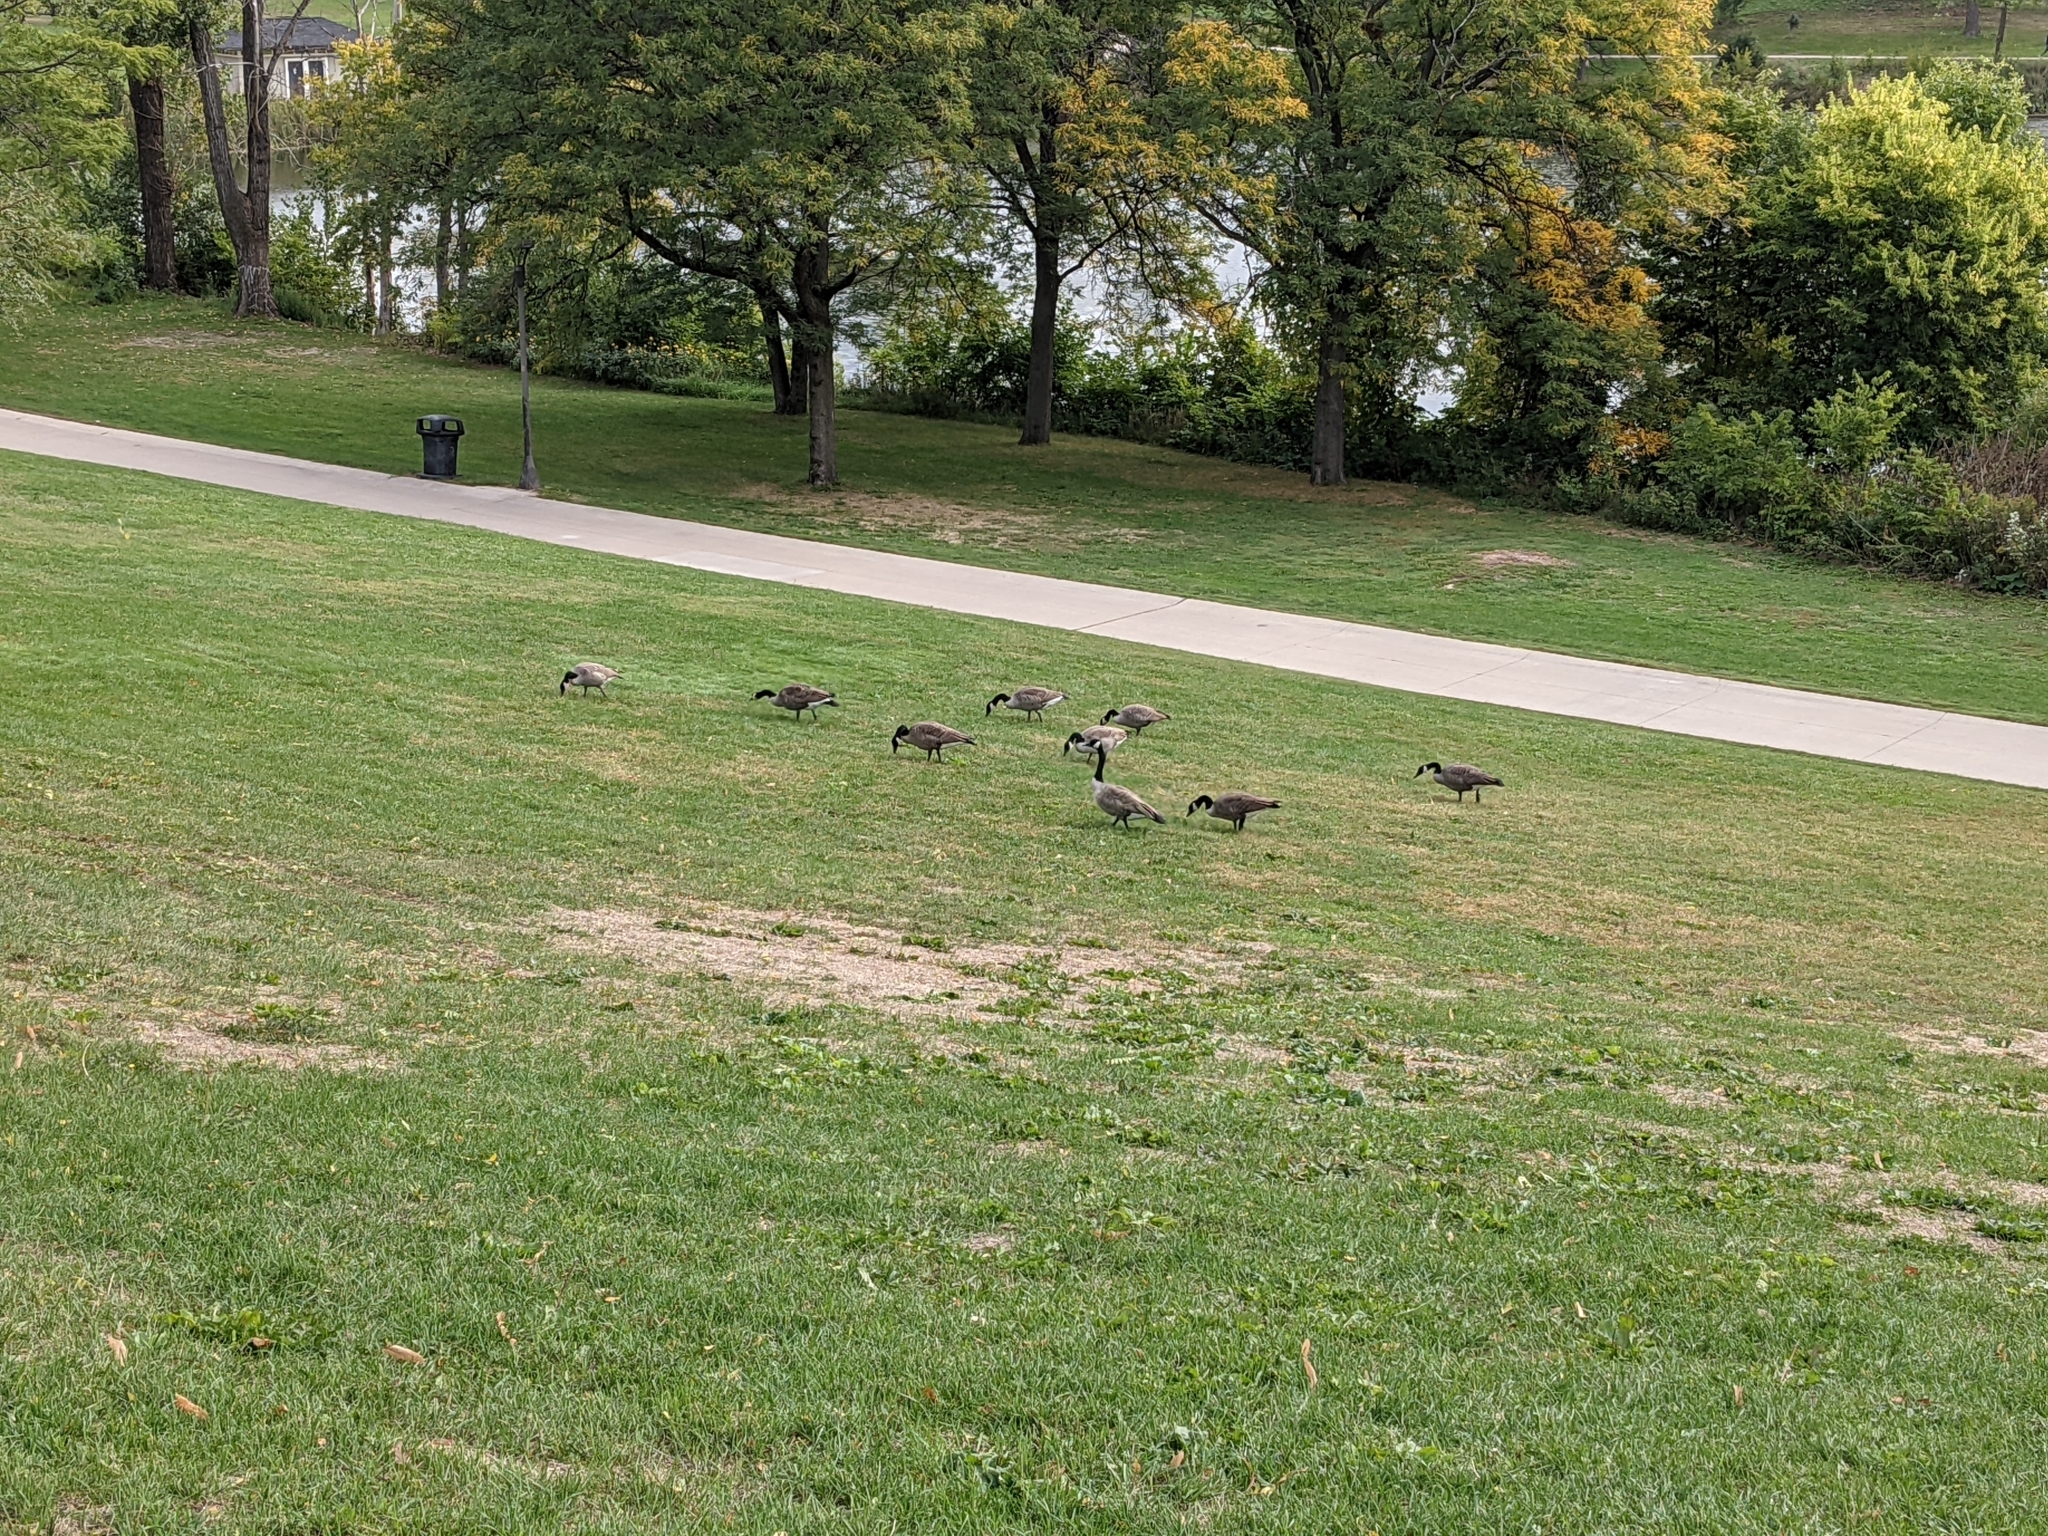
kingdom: Animalia
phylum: Chordata
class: Aves
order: Anseriformes
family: Anatidae
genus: Branta
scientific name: Branta canadensis
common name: Canada goose
